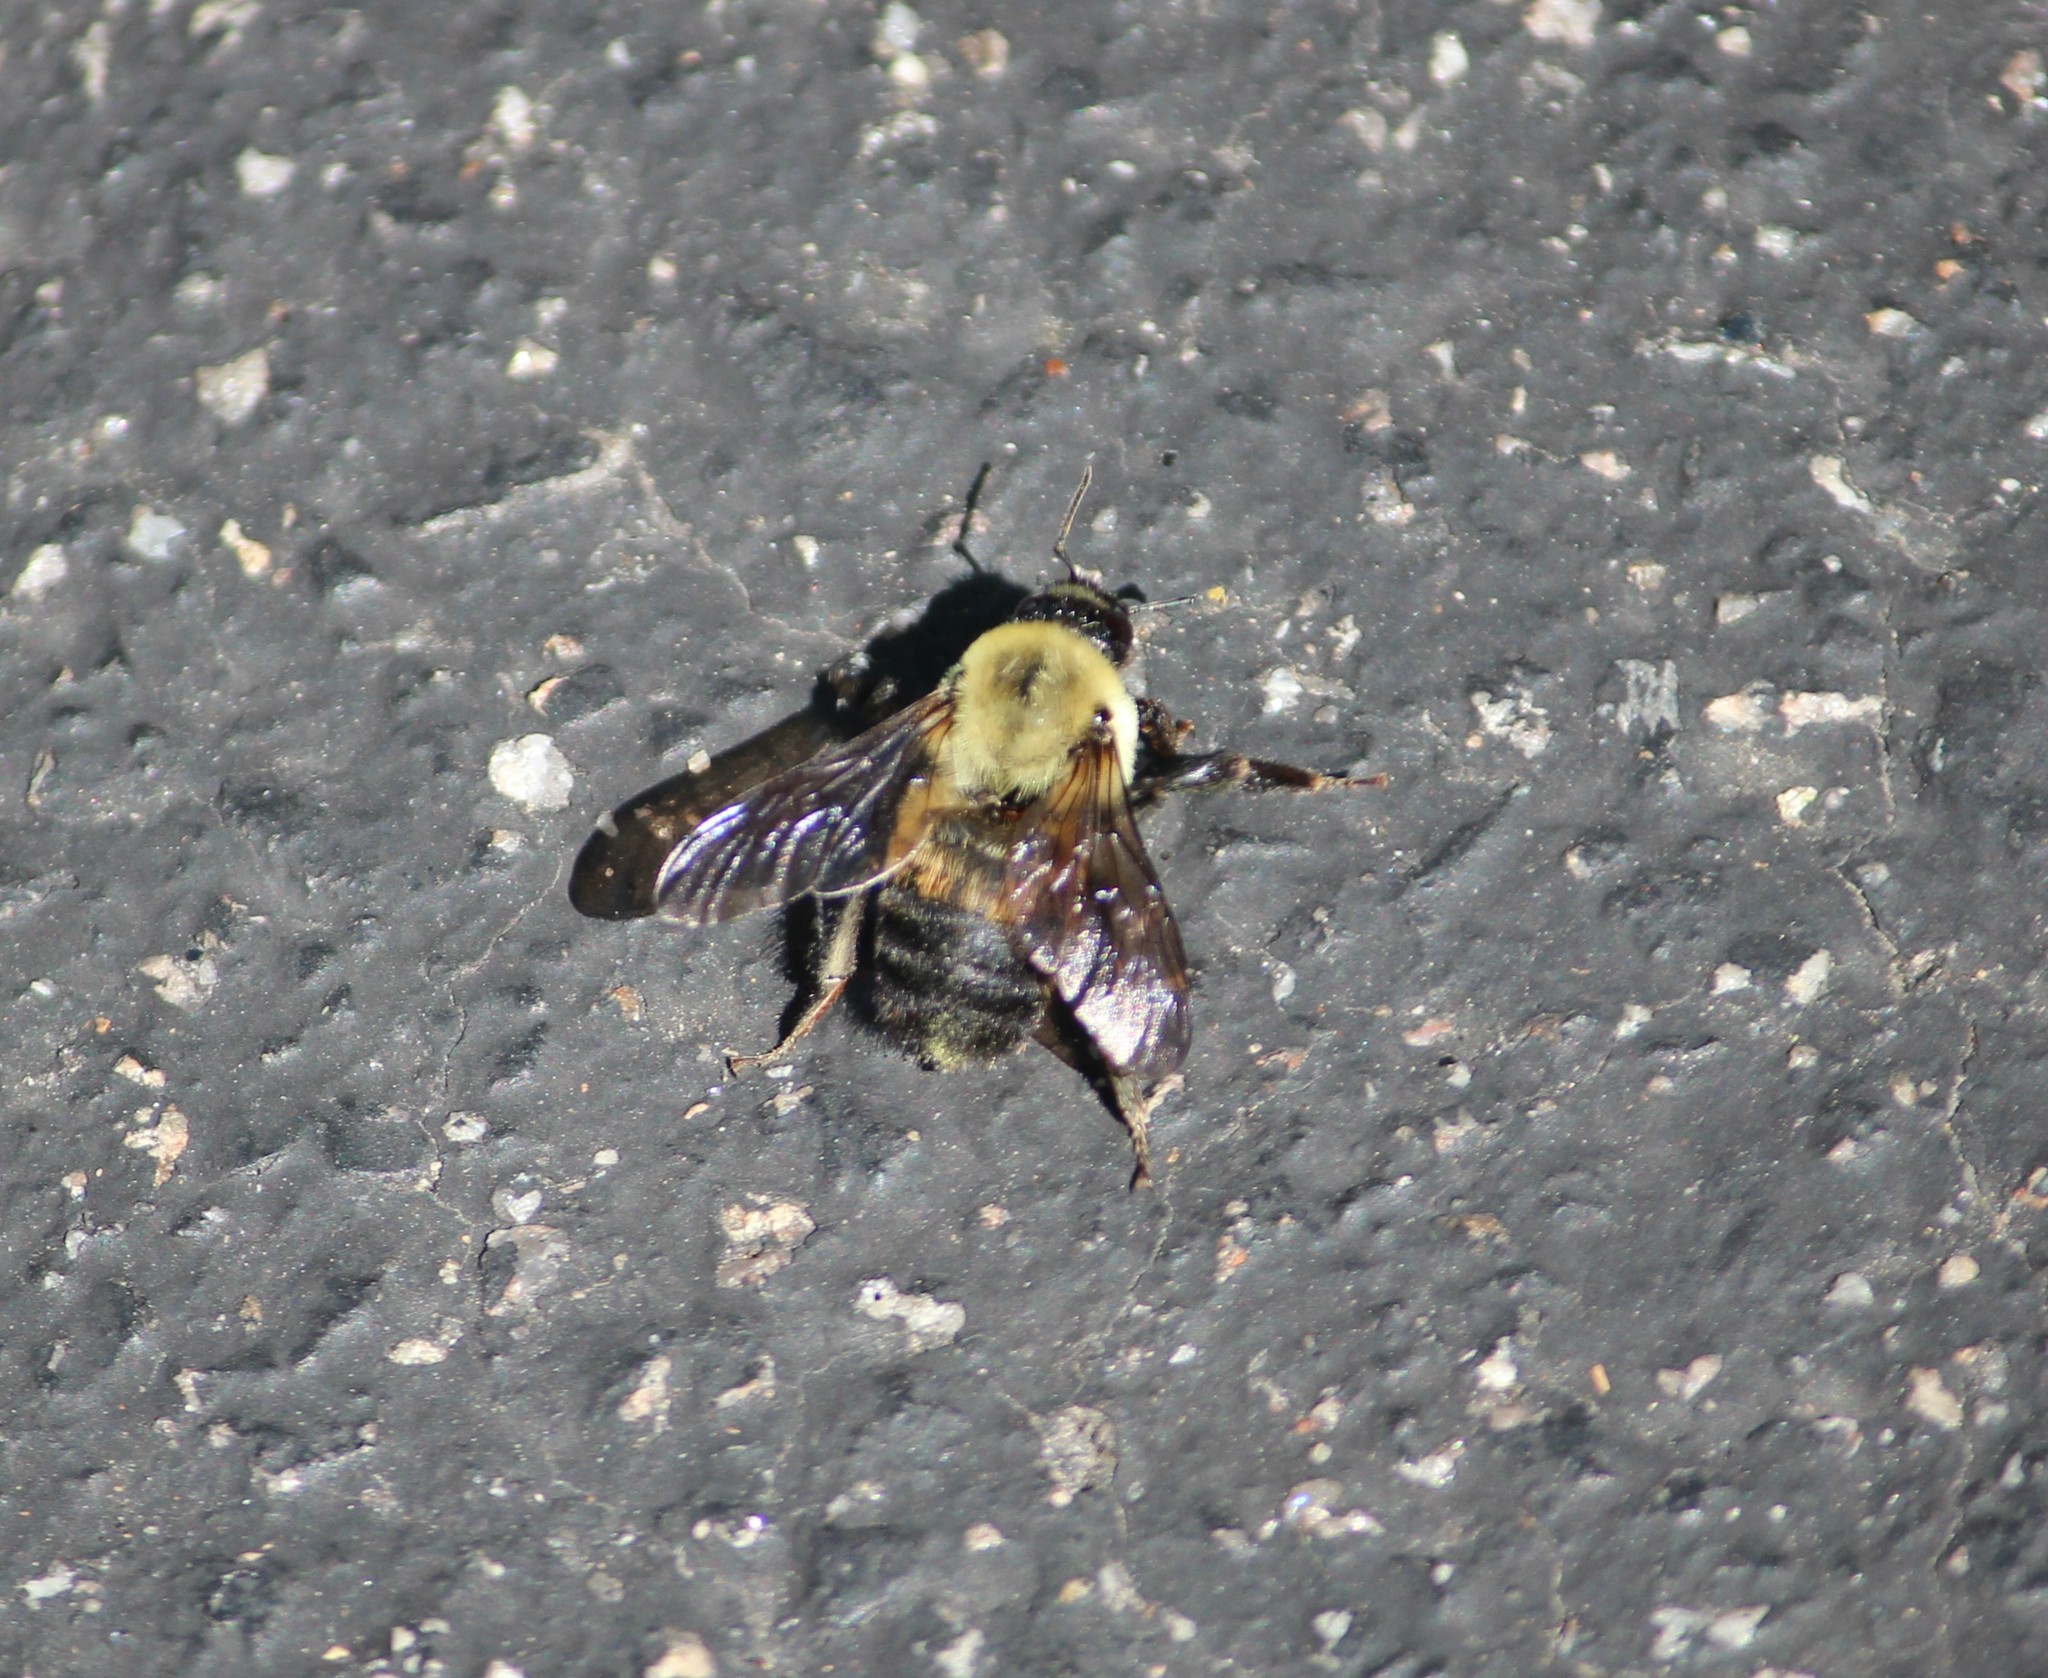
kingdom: Animalia
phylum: Arthropoda
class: Insecta
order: Hymenoptera
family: Apidae
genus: Bombus
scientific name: Bombus griseocollis
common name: Brown-belted bumble bee
